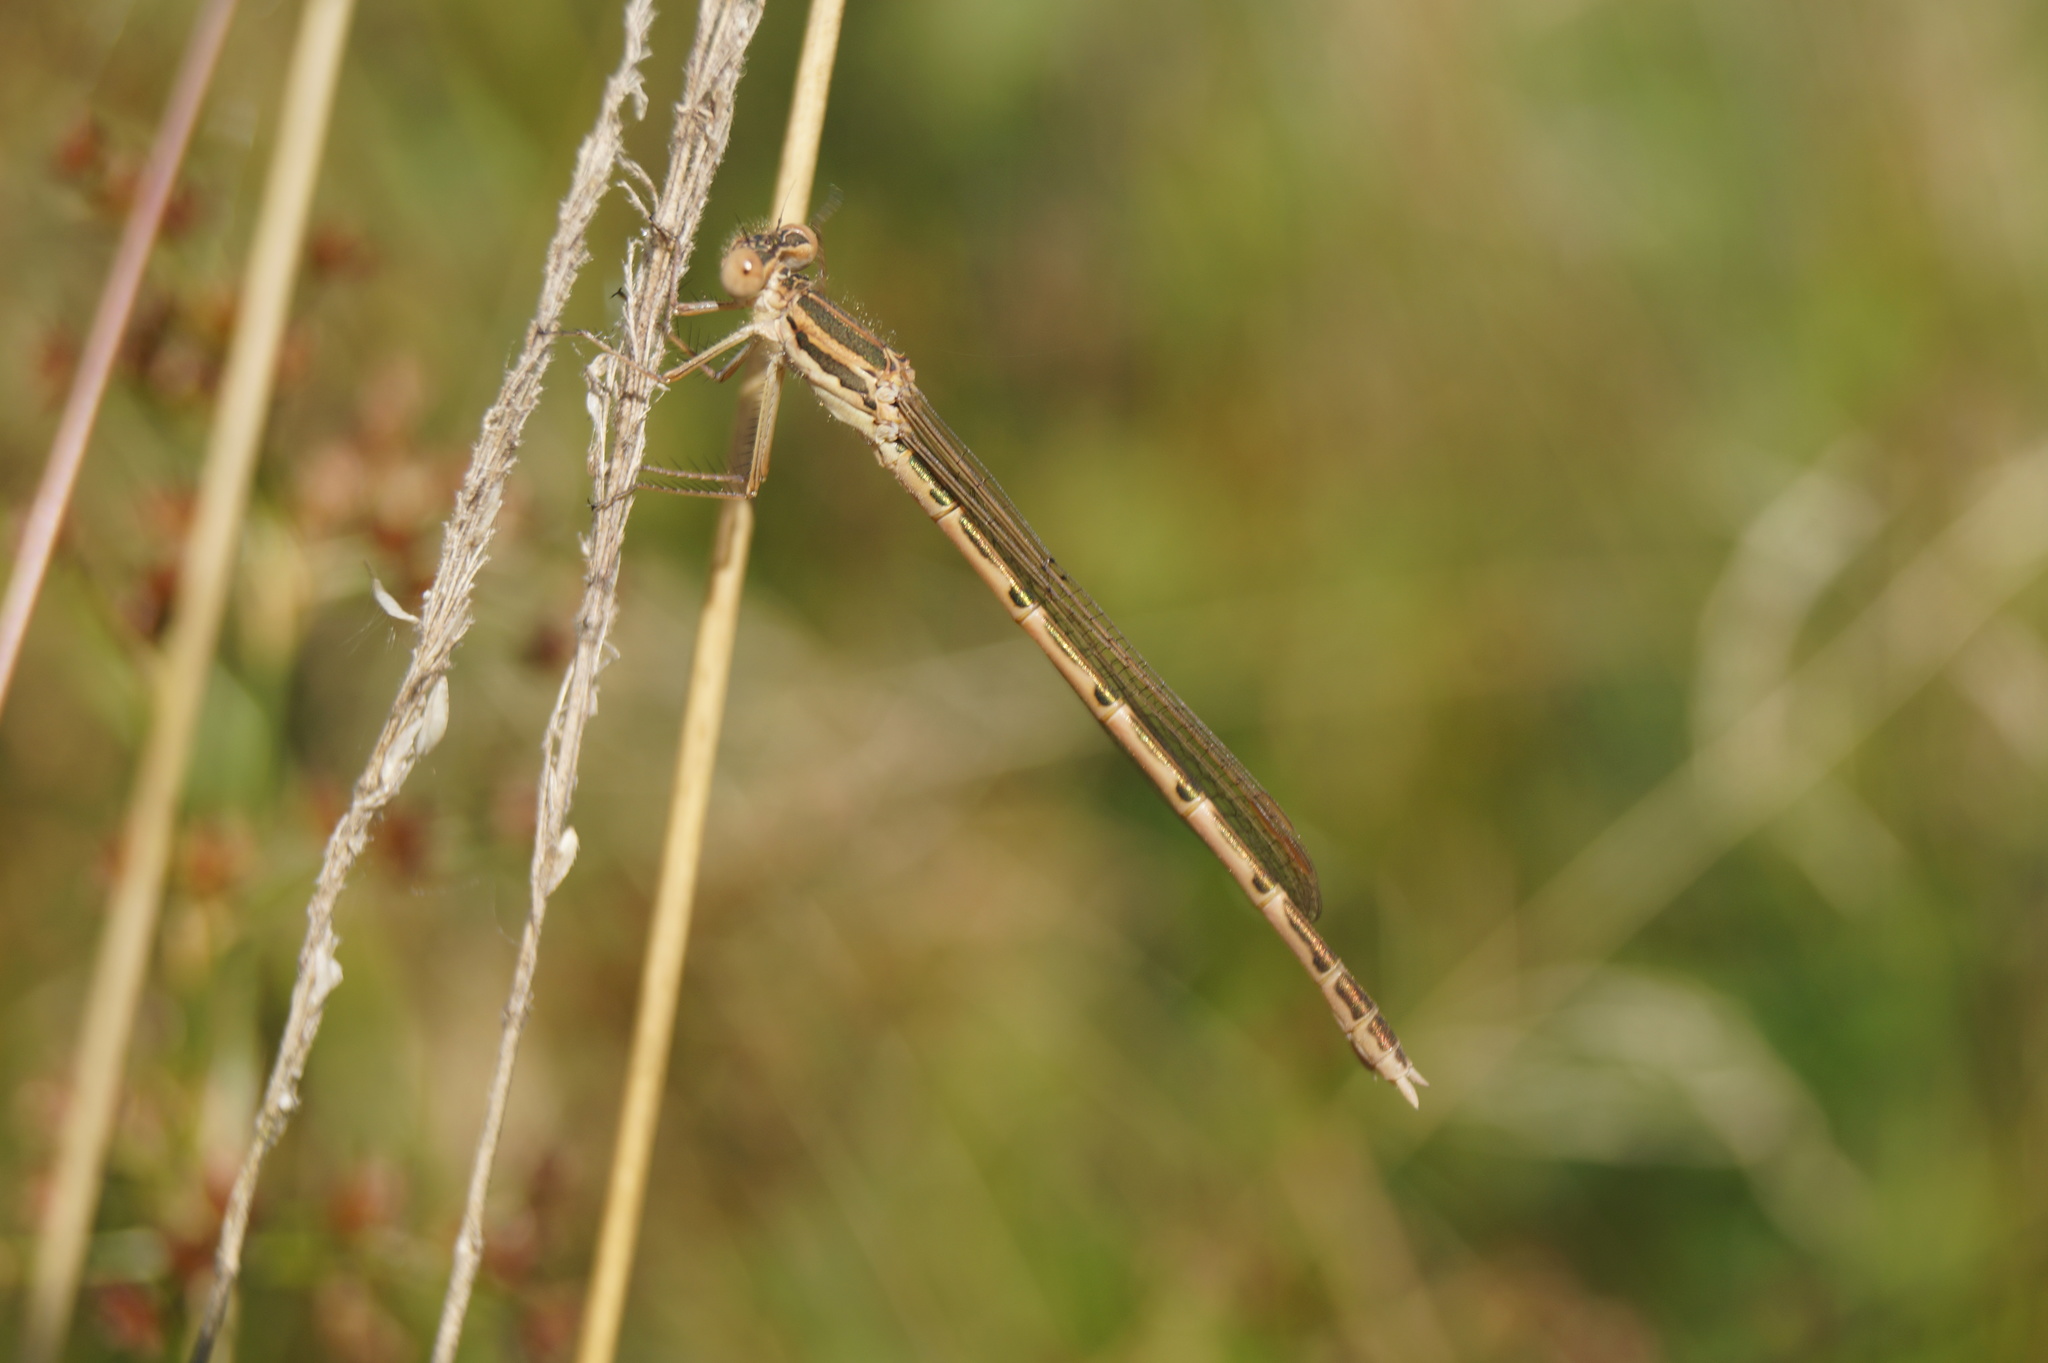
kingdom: Animalia
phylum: Arthropoda
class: Insecta
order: Odonata
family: Lestidae
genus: Sympecma
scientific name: Sympecma fusca
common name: Common winter damsel
